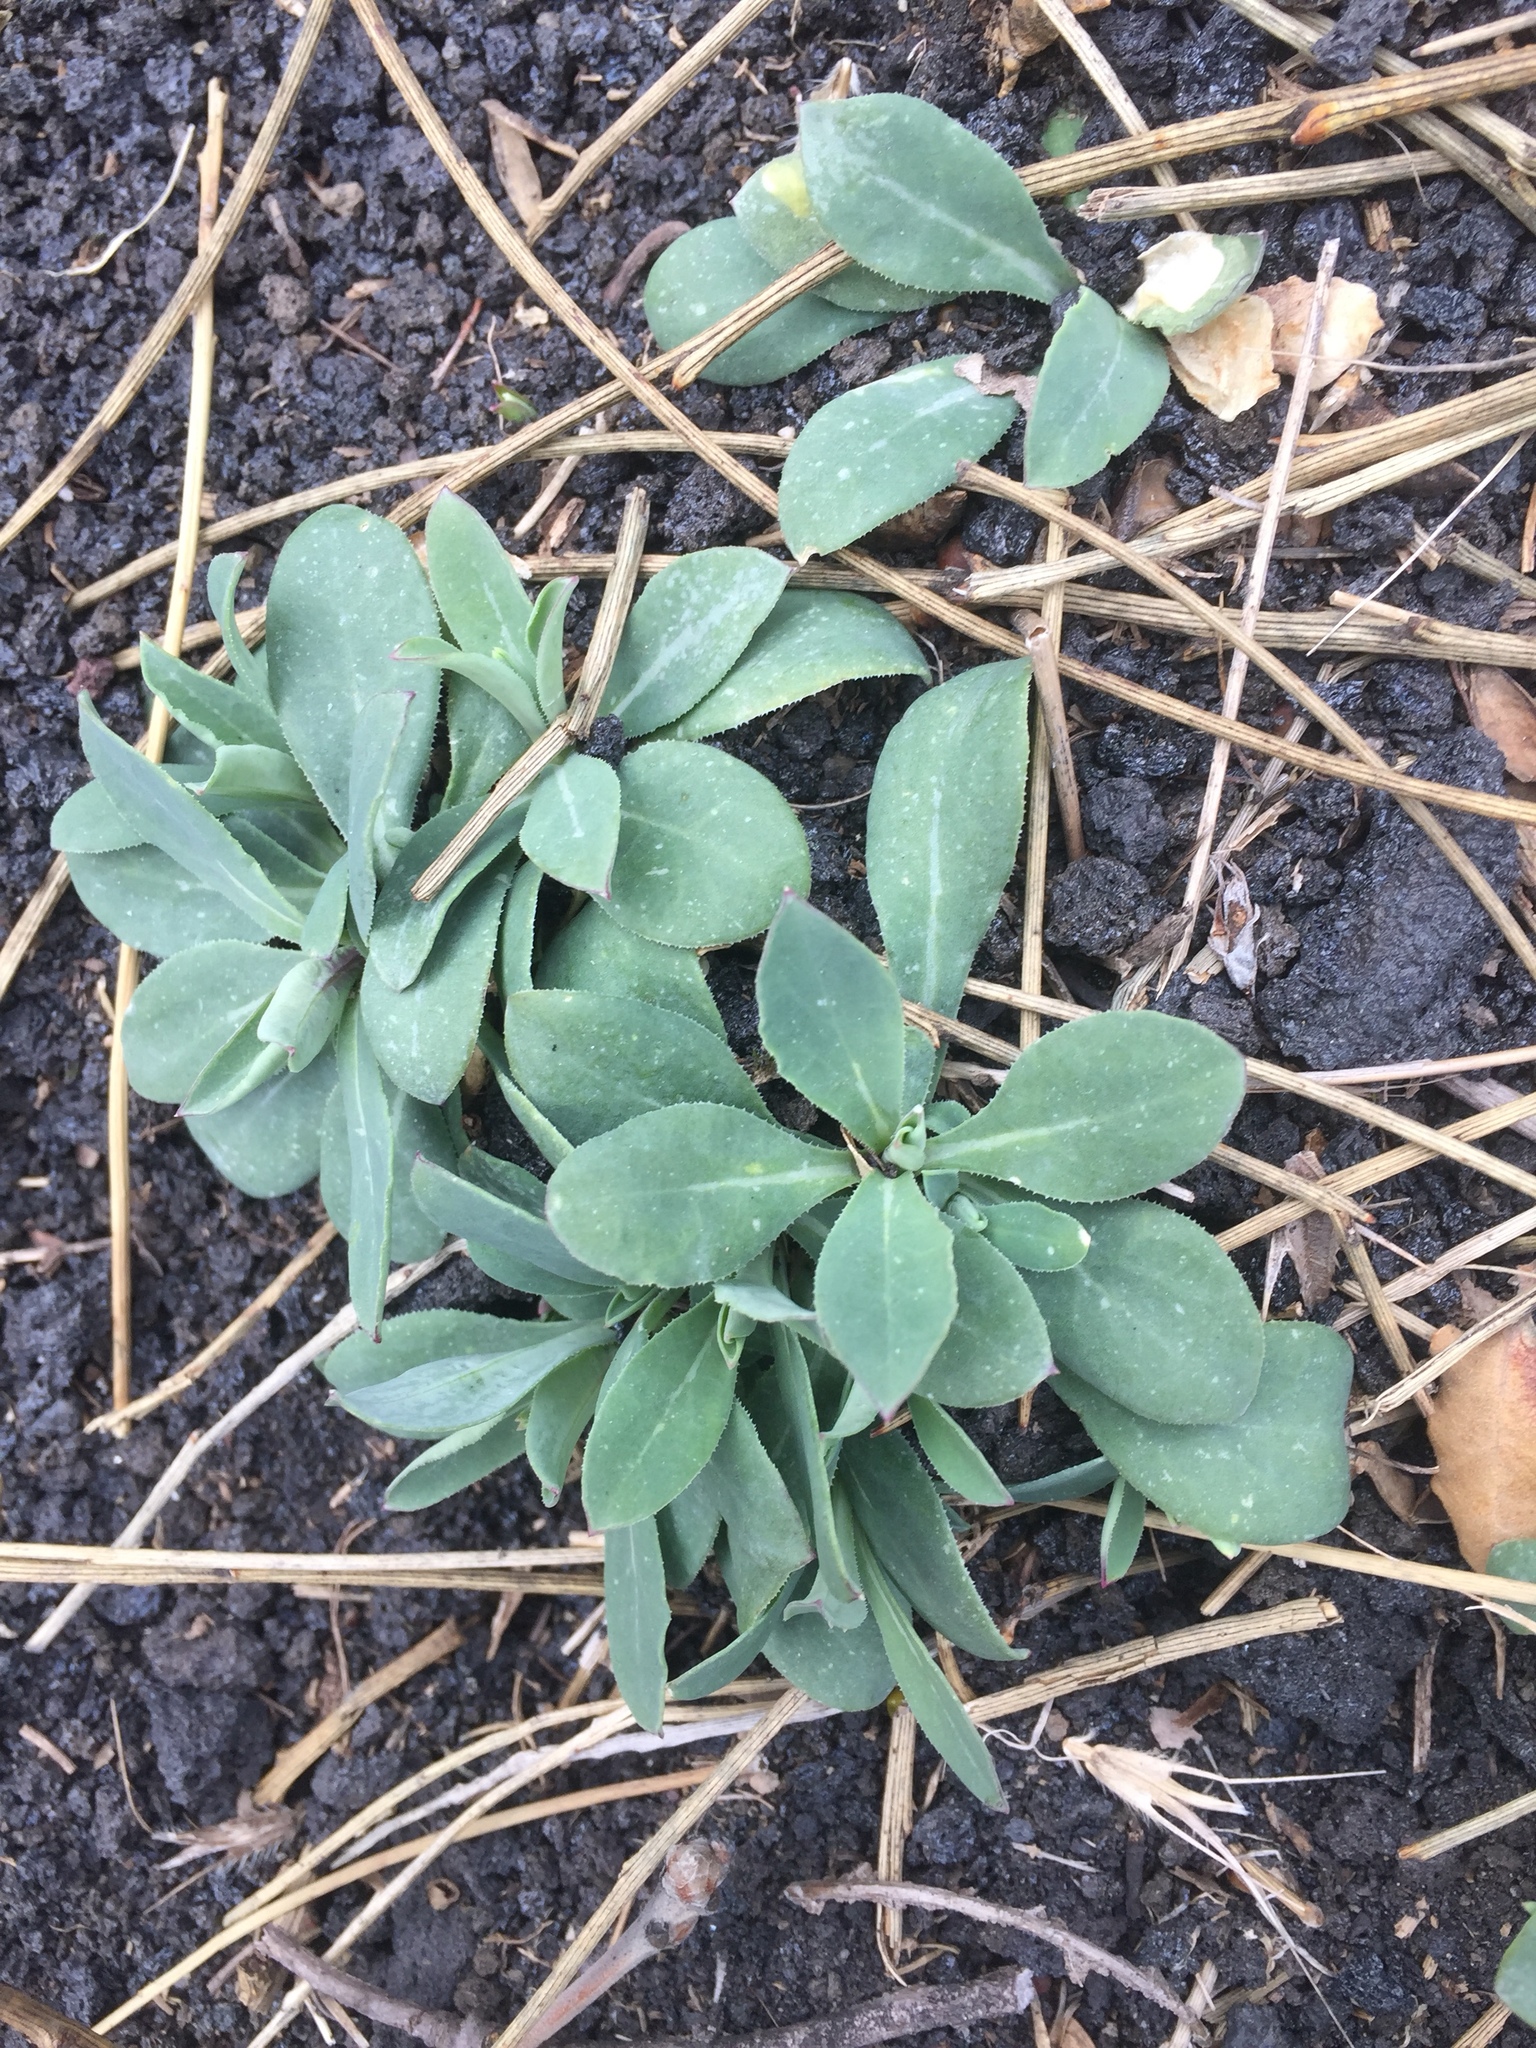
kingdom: Plantae
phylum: Tracheophyta
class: Magnoliopsida
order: Caryophyllales
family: Caryophyllaceae
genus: Silene
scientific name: Silene vulgaris
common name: Bladder campion
